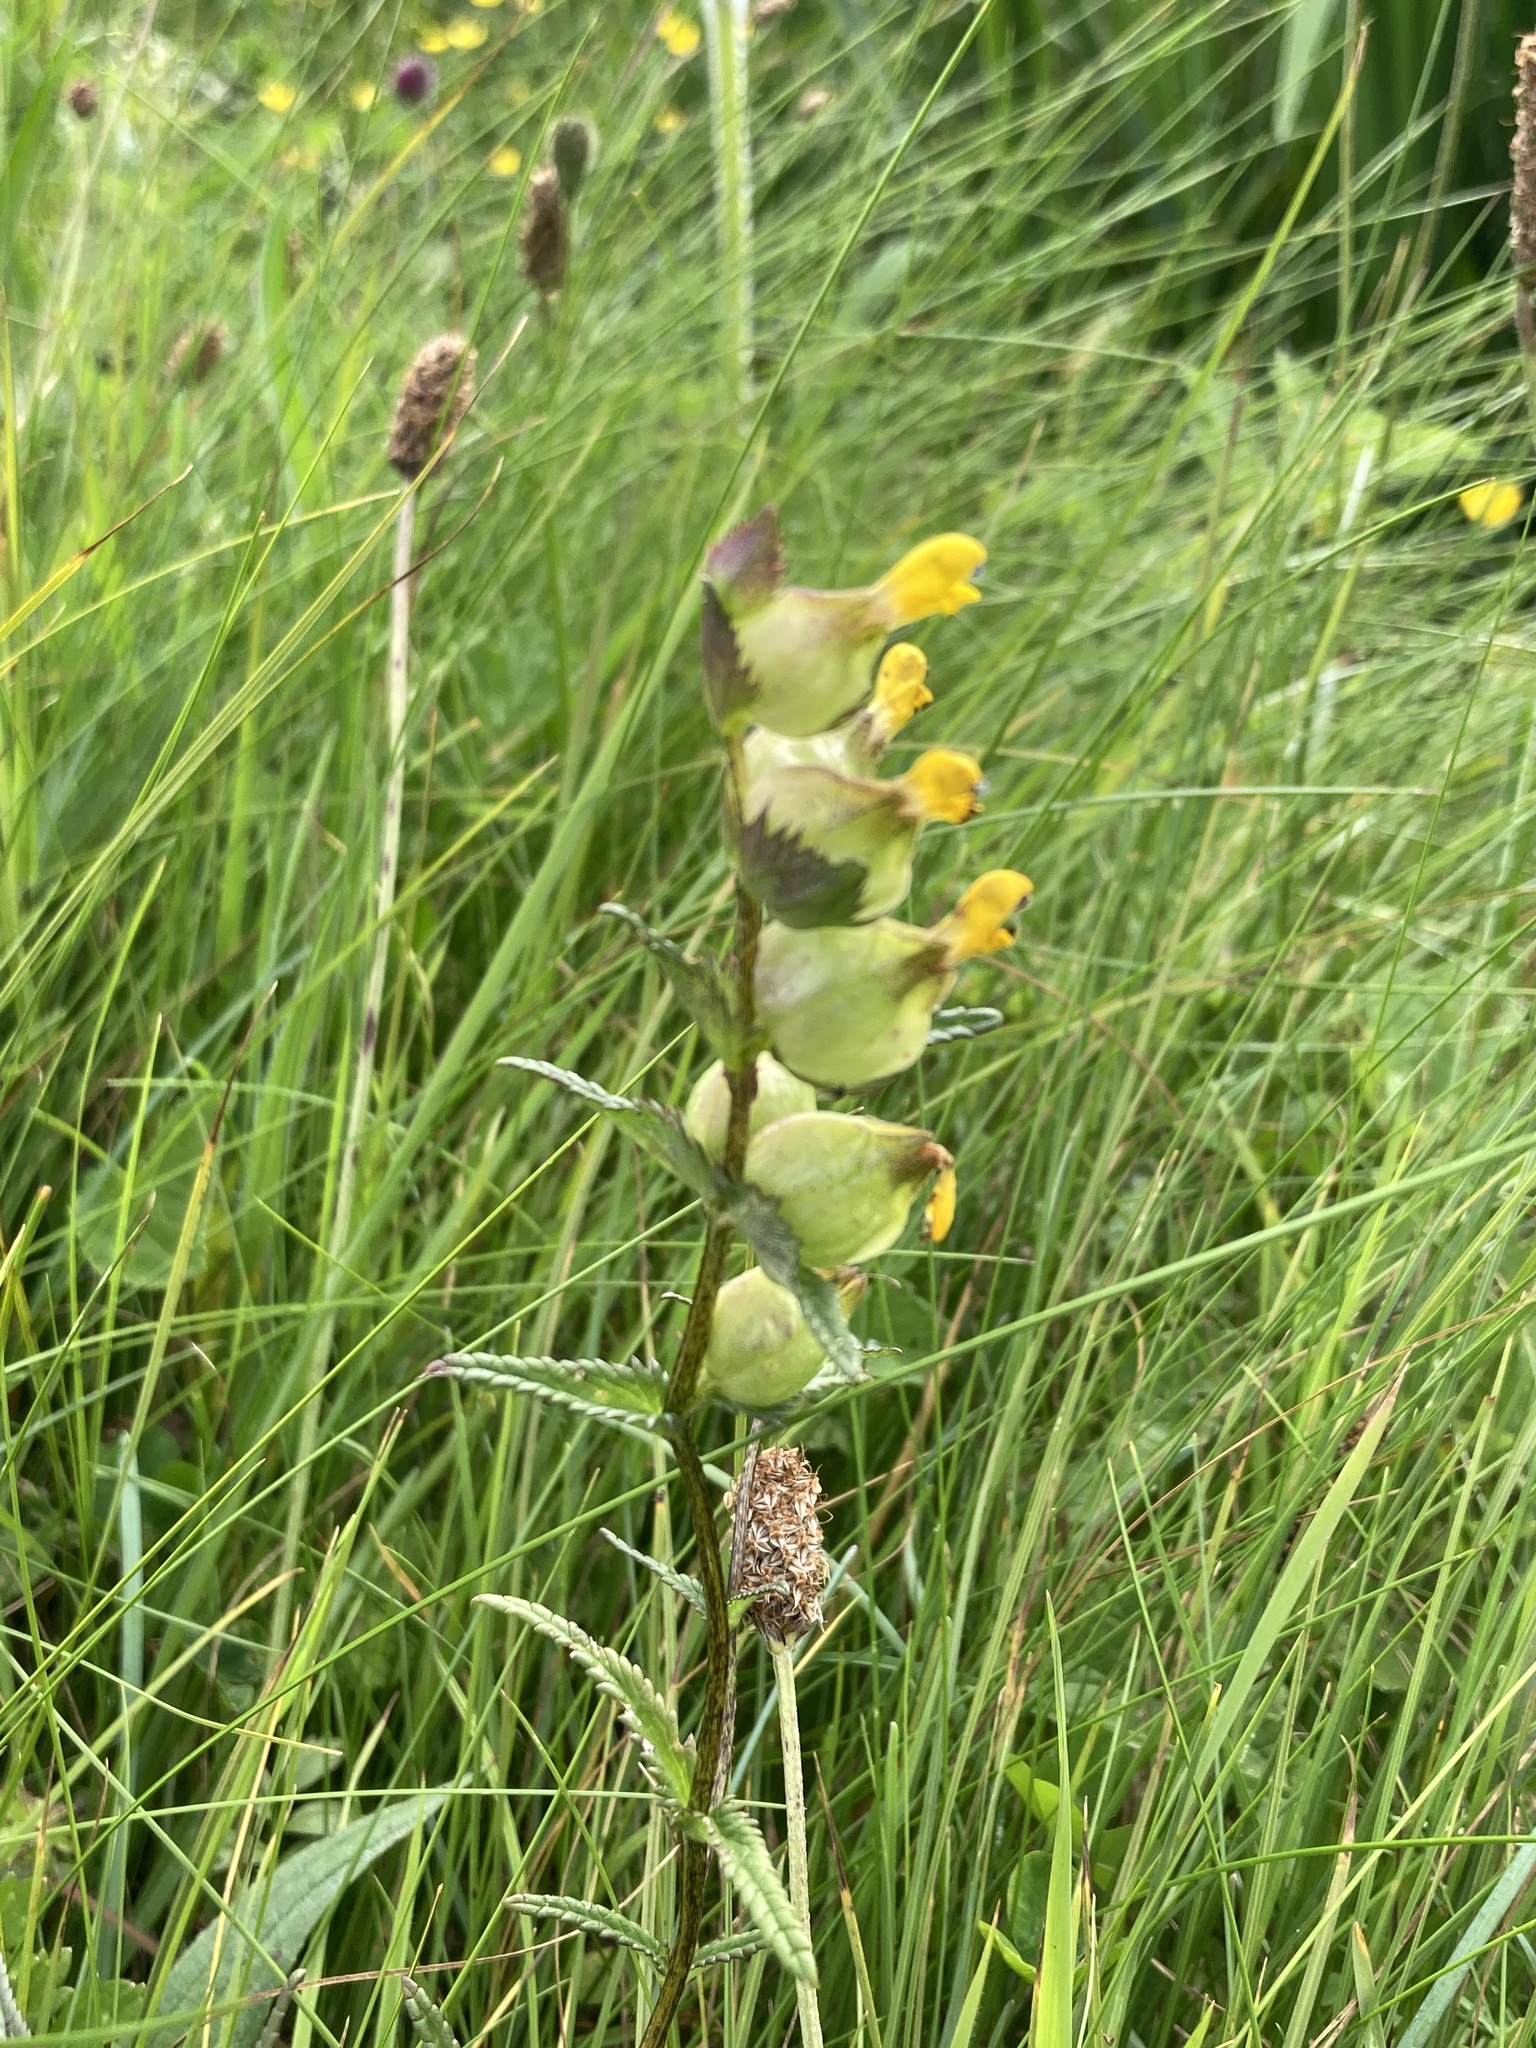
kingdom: Plantae
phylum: Tracheophyta
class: Magnoliopsida
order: Lamiales
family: Orobanchaceae
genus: Rhinanthus
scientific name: Rhinanthus minor
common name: Yellow-rattle
